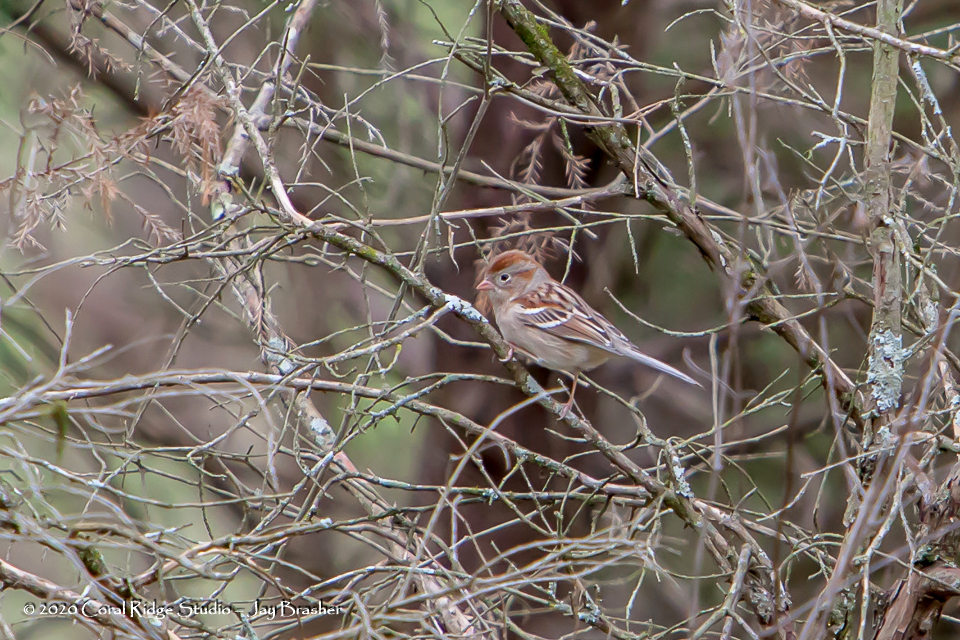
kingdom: Animalia
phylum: Chordata
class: Aves
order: Passeriformes
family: Passerellidae
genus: Spizella
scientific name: Spizella pusilla
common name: Field sparrow
